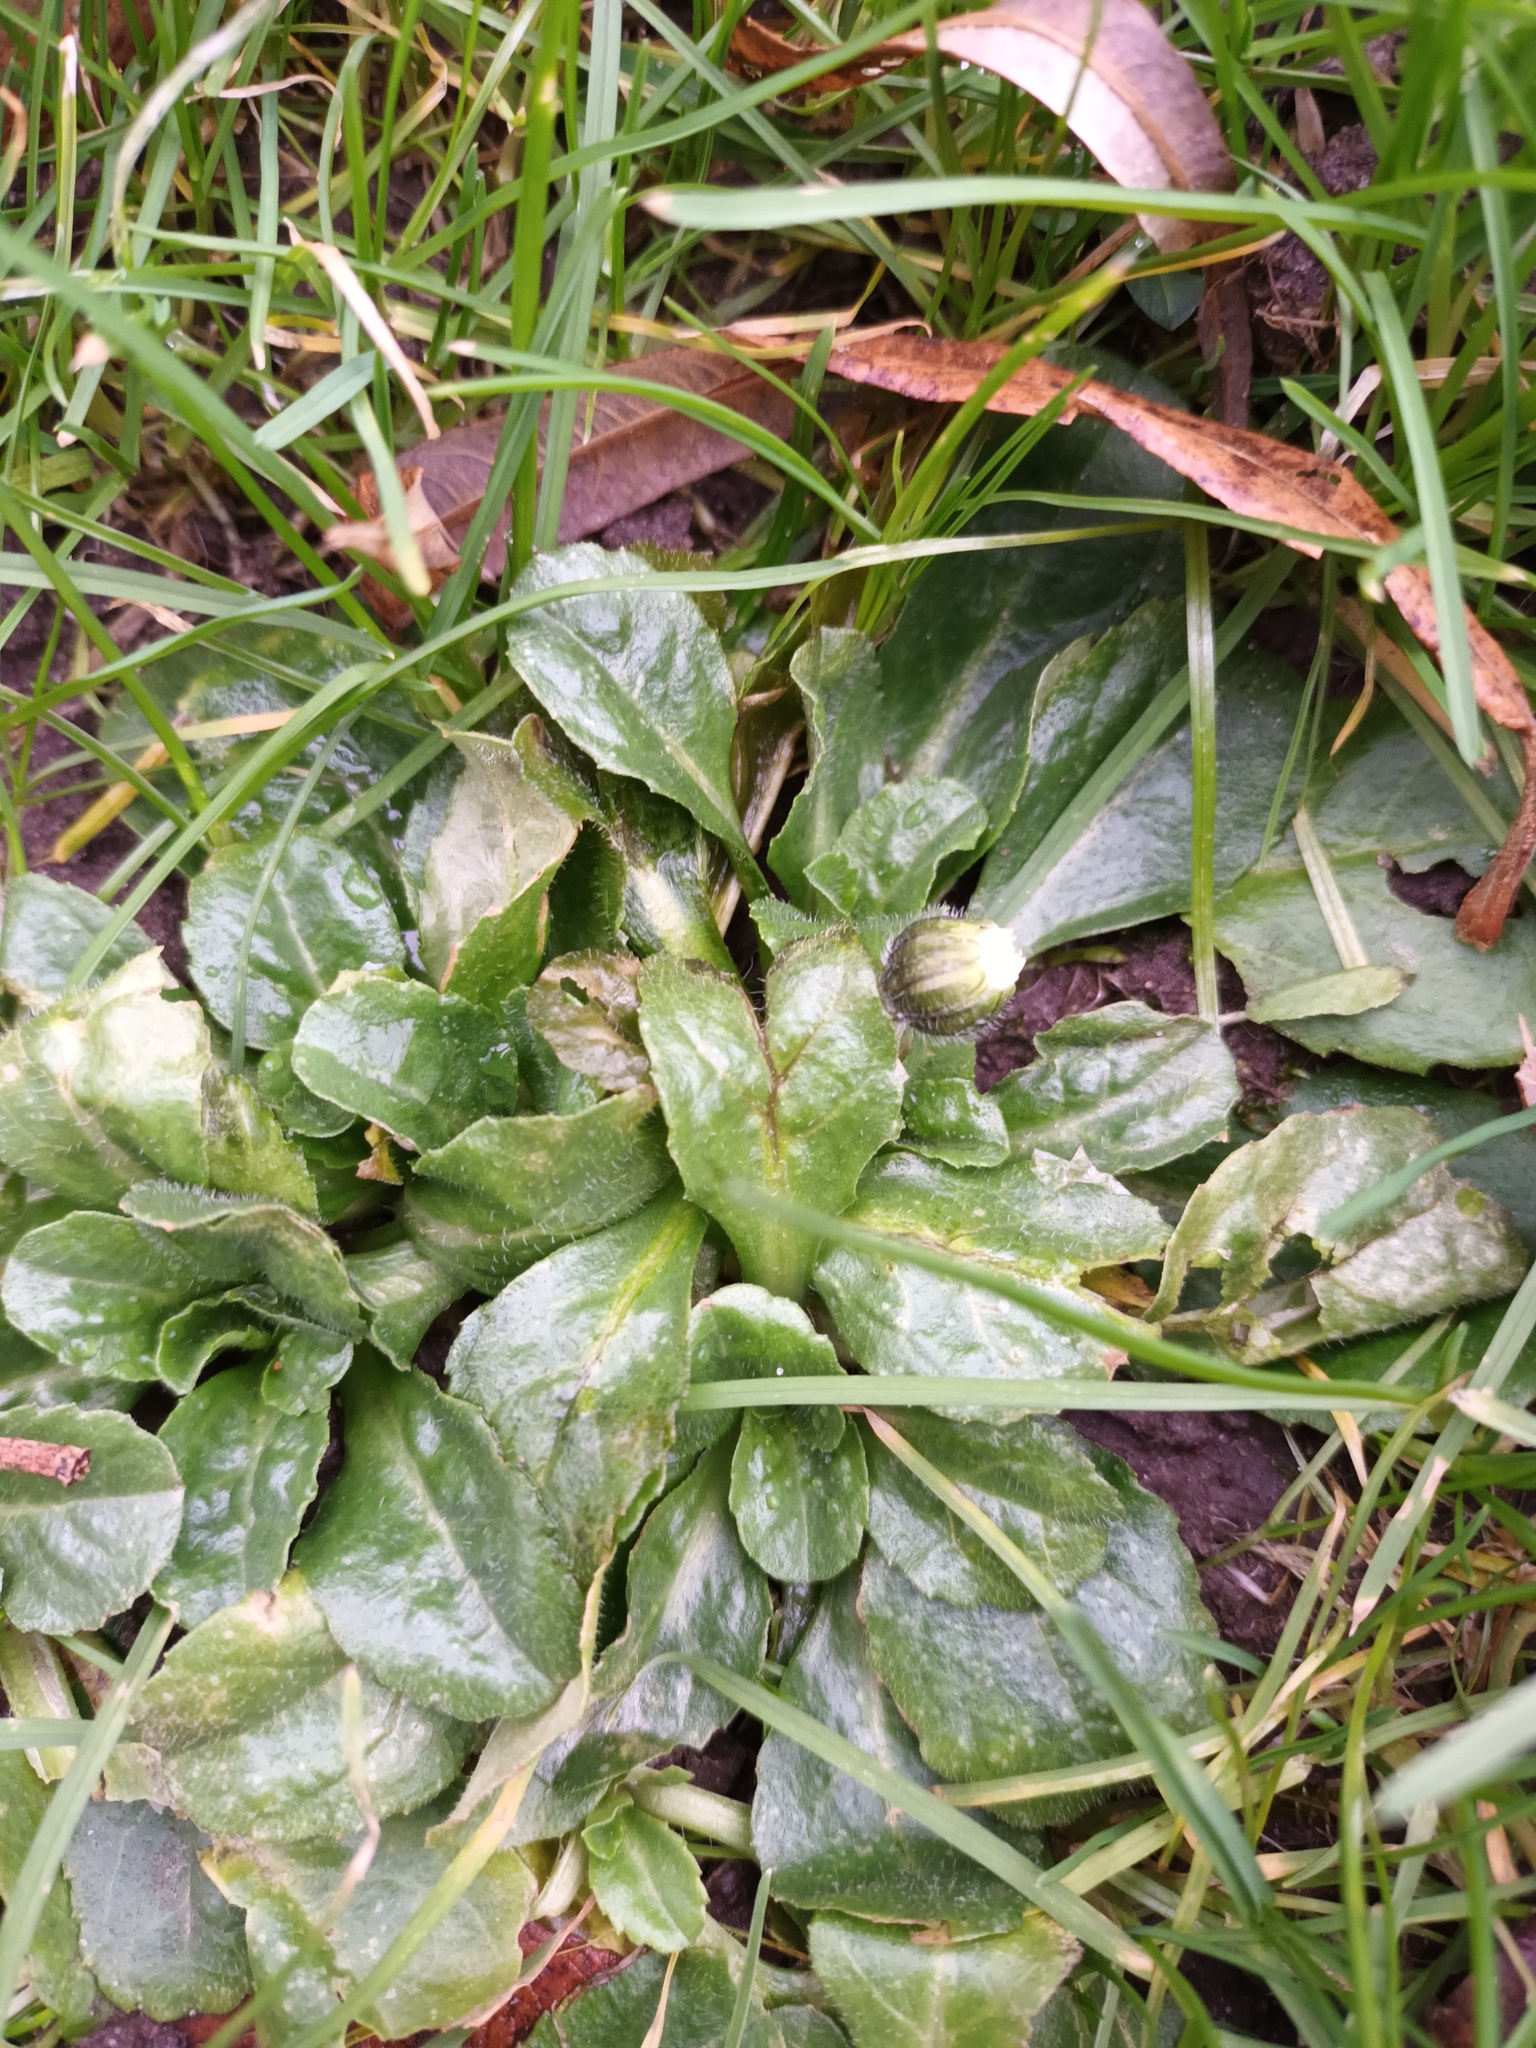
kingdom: Plantae
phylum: Tracheophyta
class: Magnoliopsida
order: Asterales
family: Asteraceae
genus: Bellis
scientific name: Bellis perennis
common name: Lawndaisy
